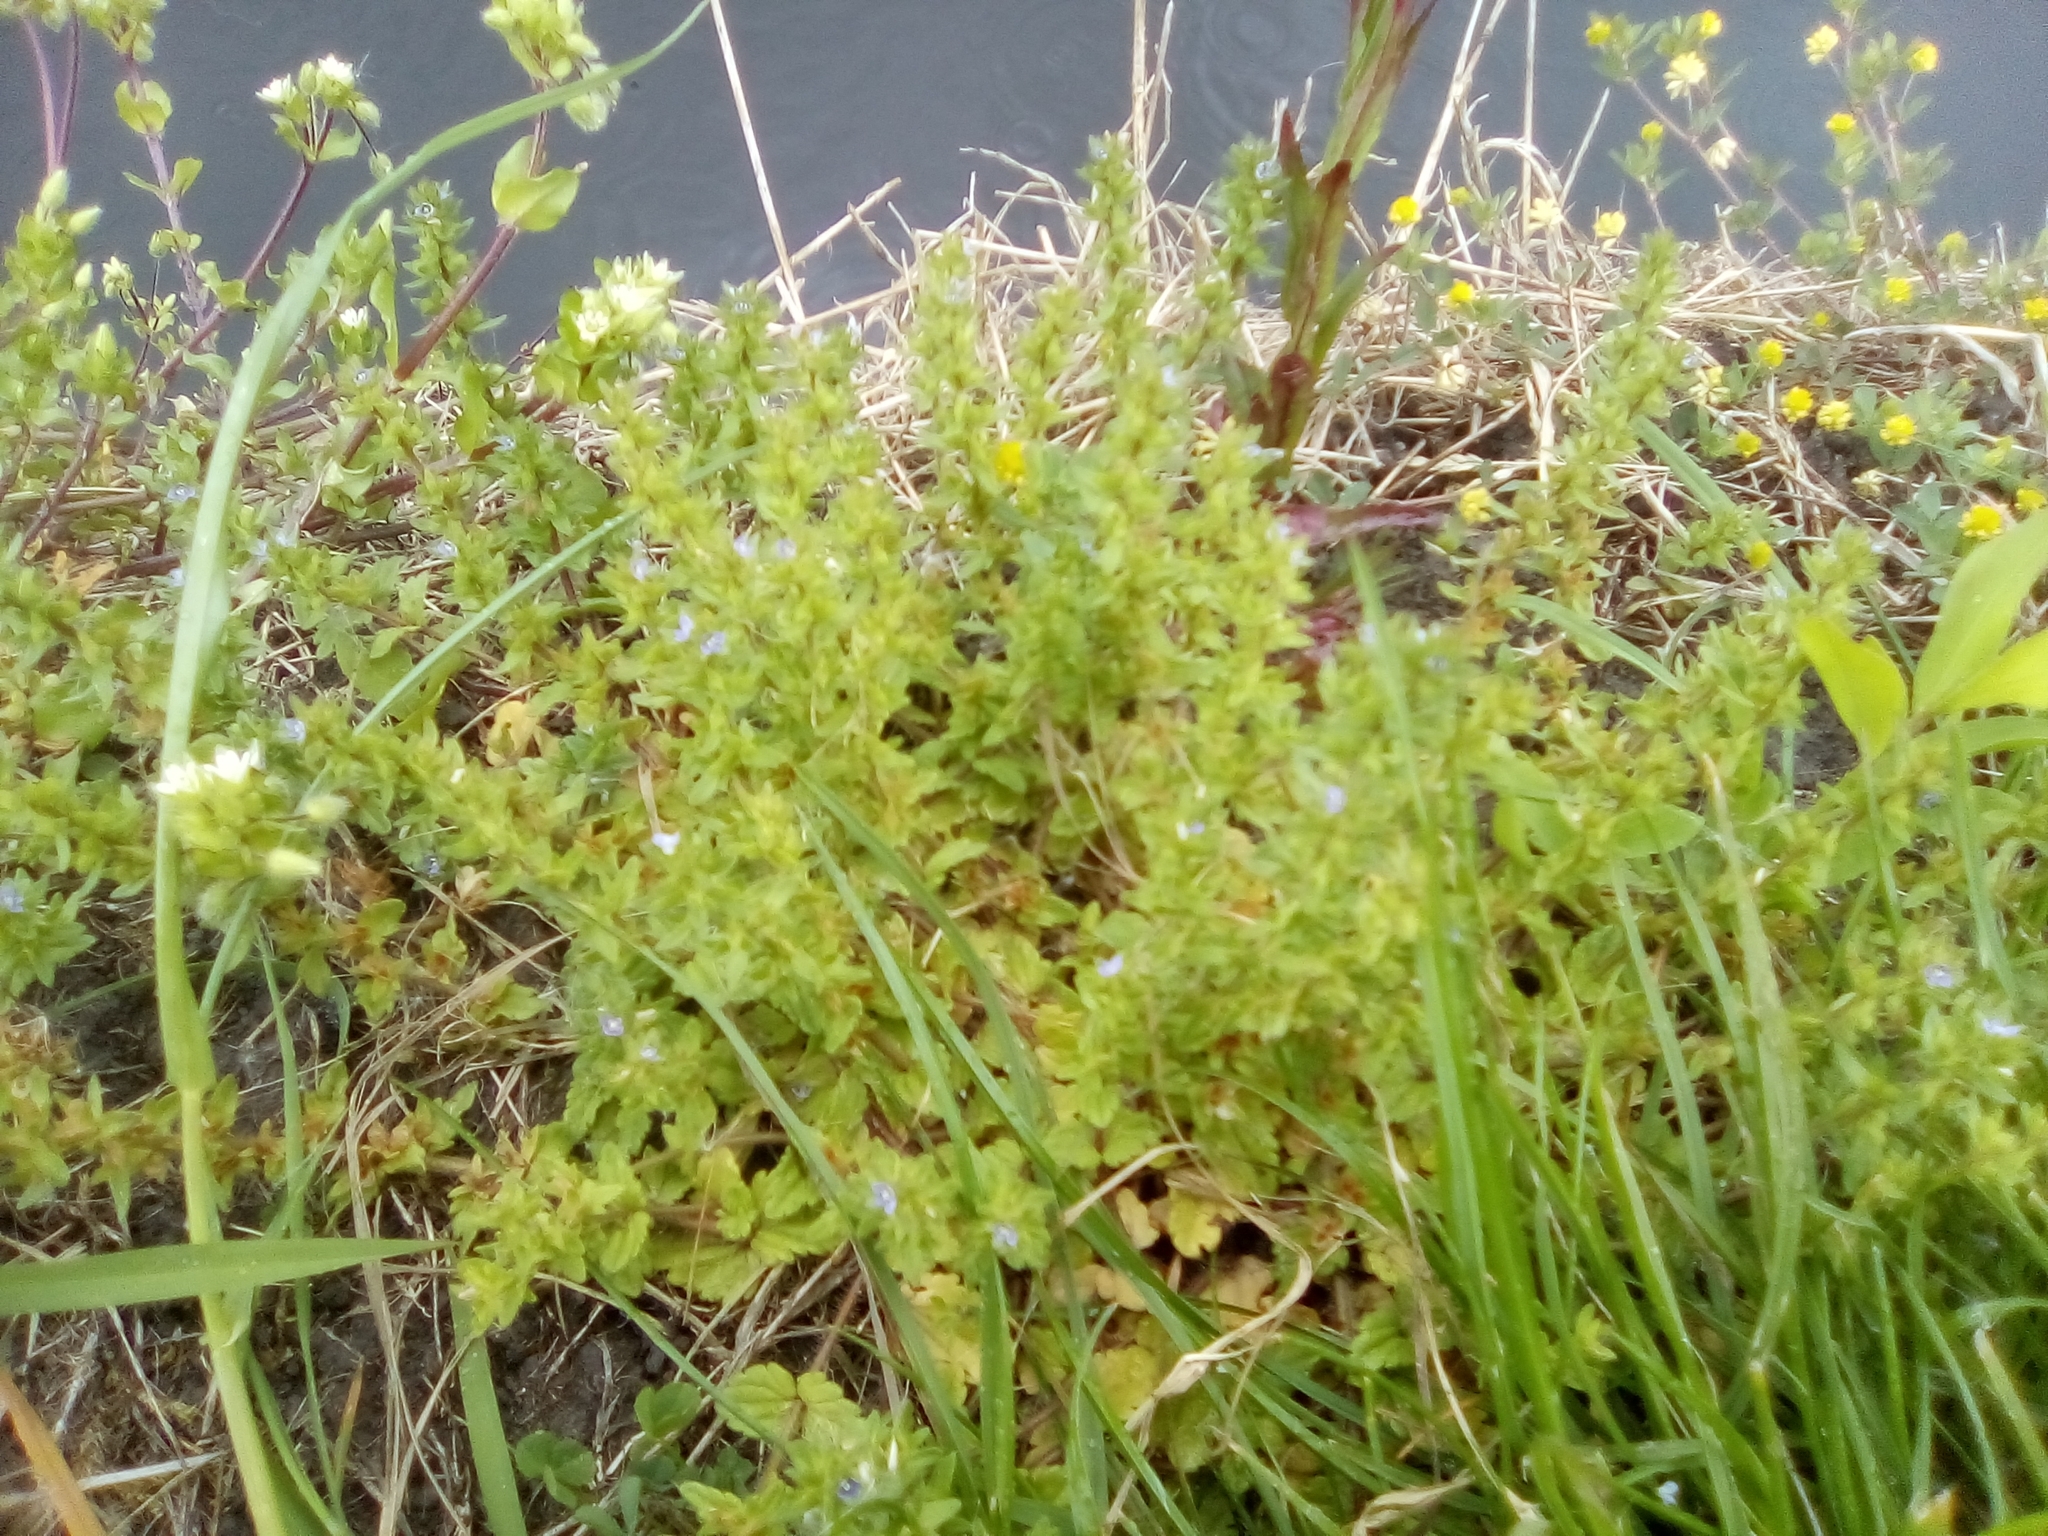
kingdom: Plantae
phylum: Tracheophyta
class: Magnoliopsida
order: Lamiales
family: Plantaginaceae
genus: Veronica
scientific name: Veronica arvensis
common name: Corn speedwell
